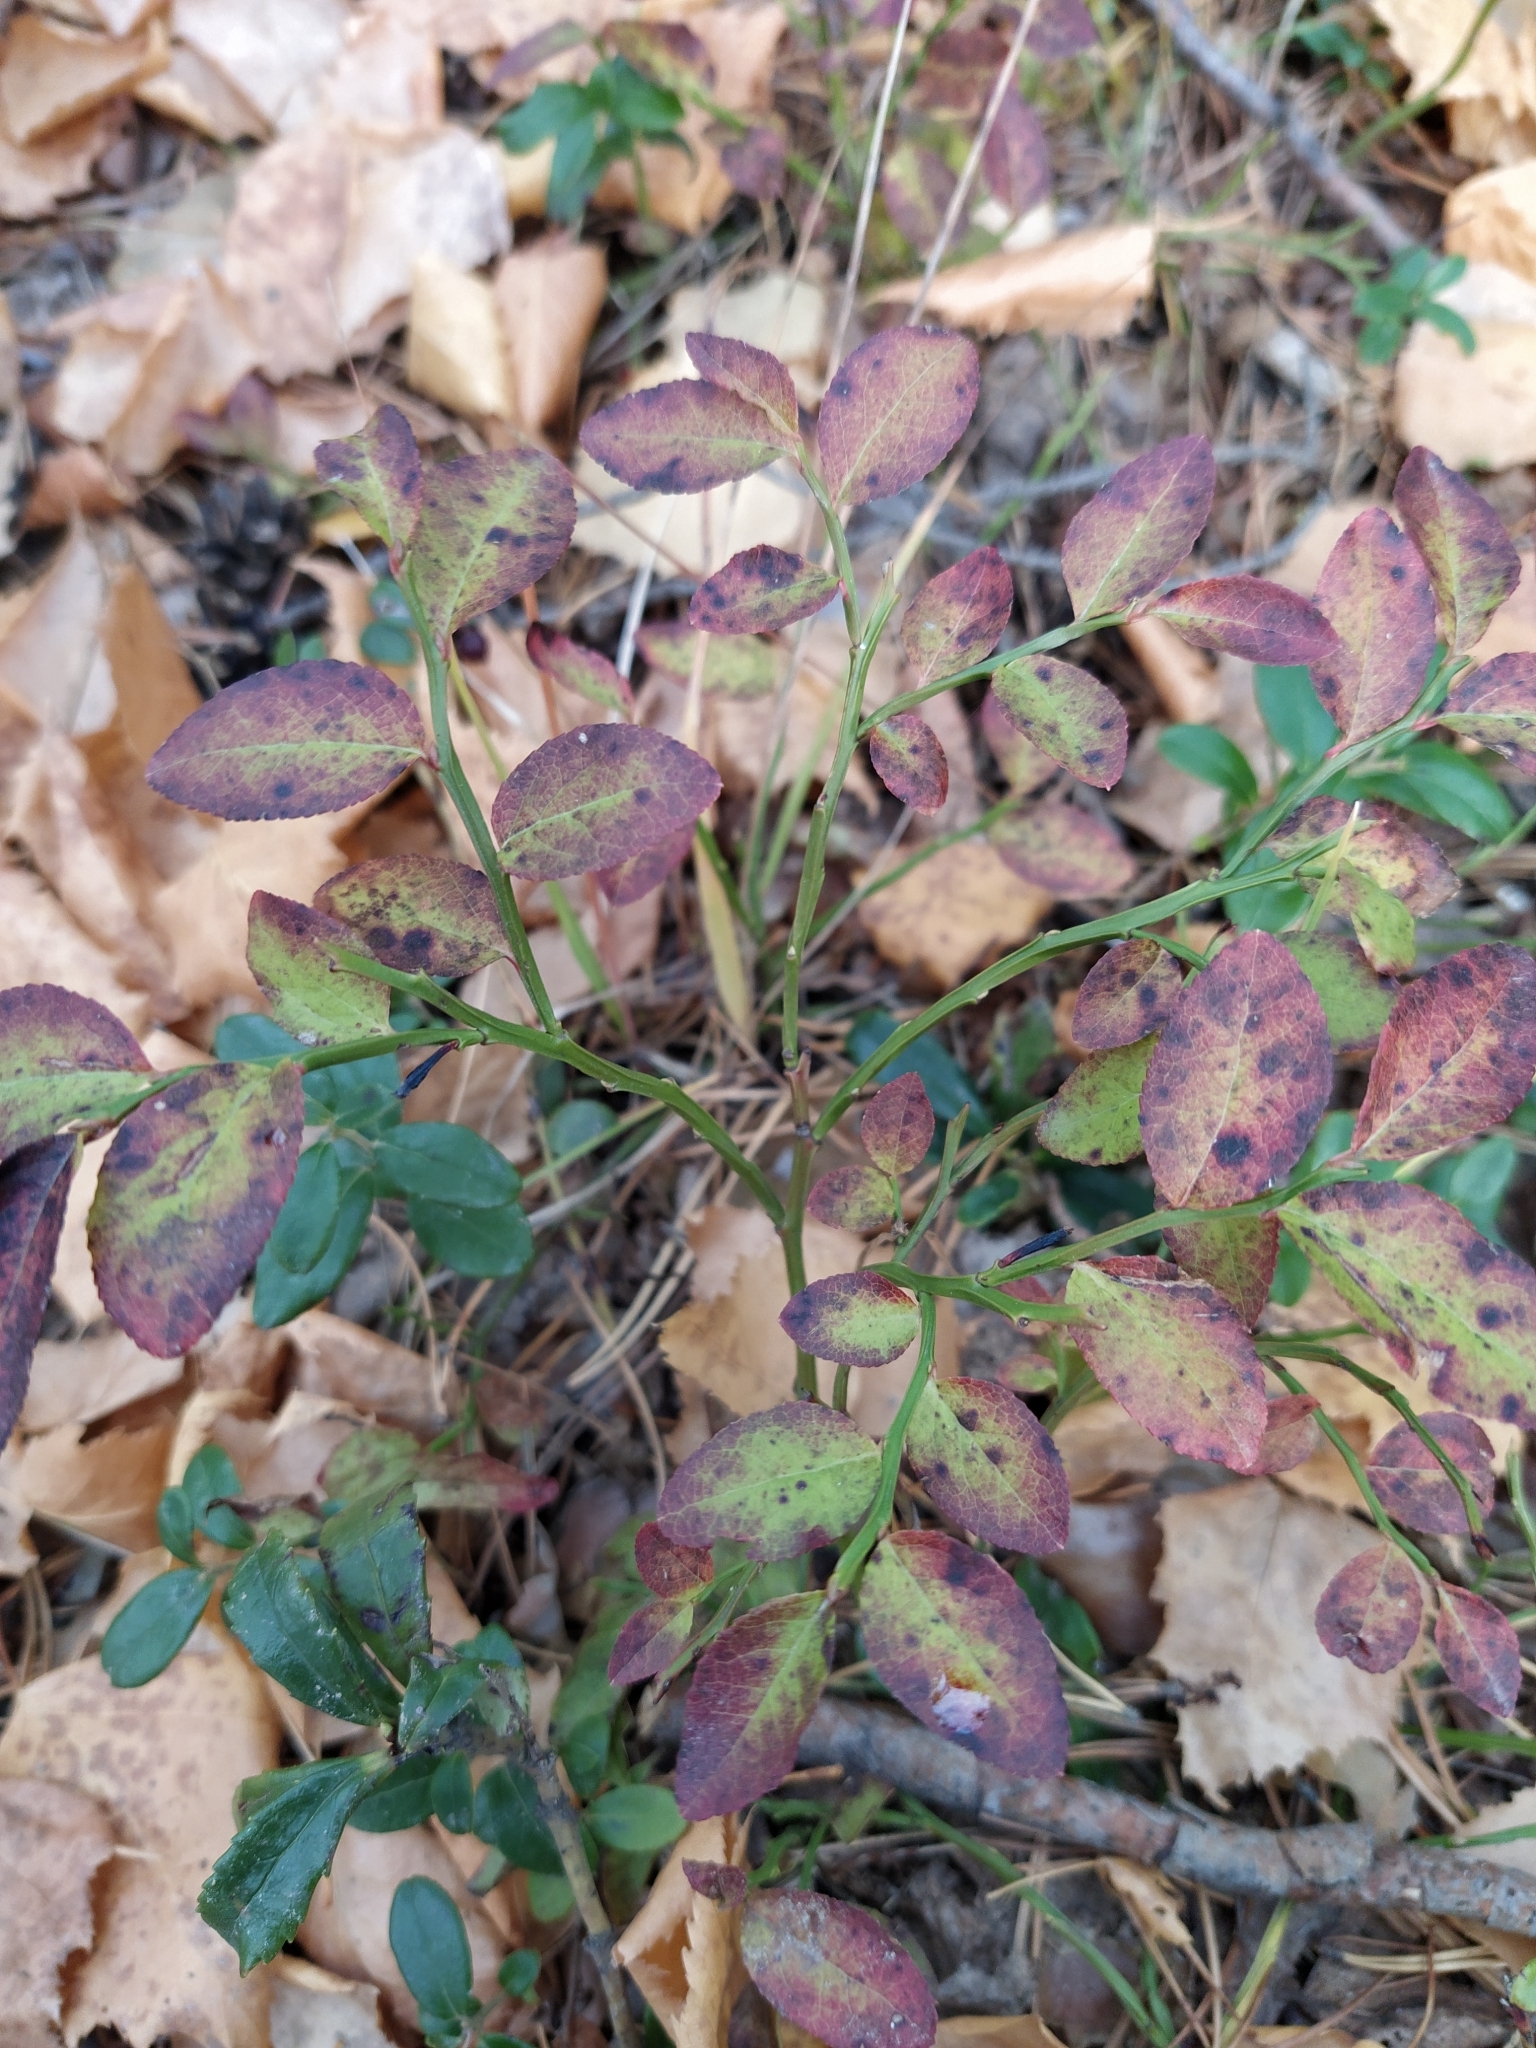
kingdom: Plantae
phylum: Tracheophyta
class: Magnoliopsida
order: Ericales
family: Ericaceae
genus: Vaccinium
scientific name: Vaccinium myrtillus
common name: Bilberry
